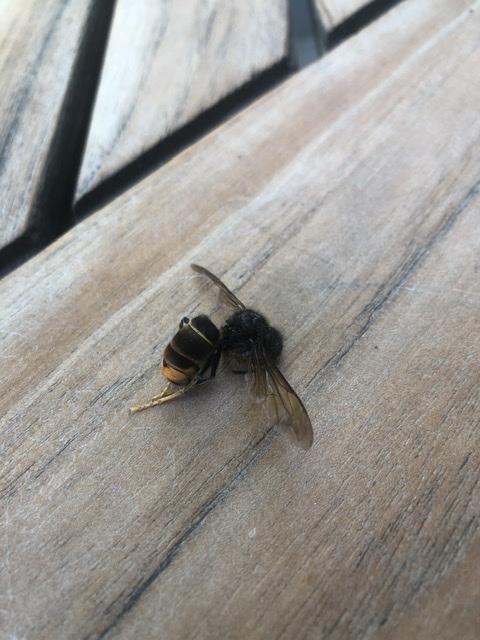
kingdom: Animalia
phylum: Arthropoda
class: Insecta
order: Hymenoptera
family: Vespidae
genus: Vespa
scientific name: Vespa velutina
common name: Asian hornet
